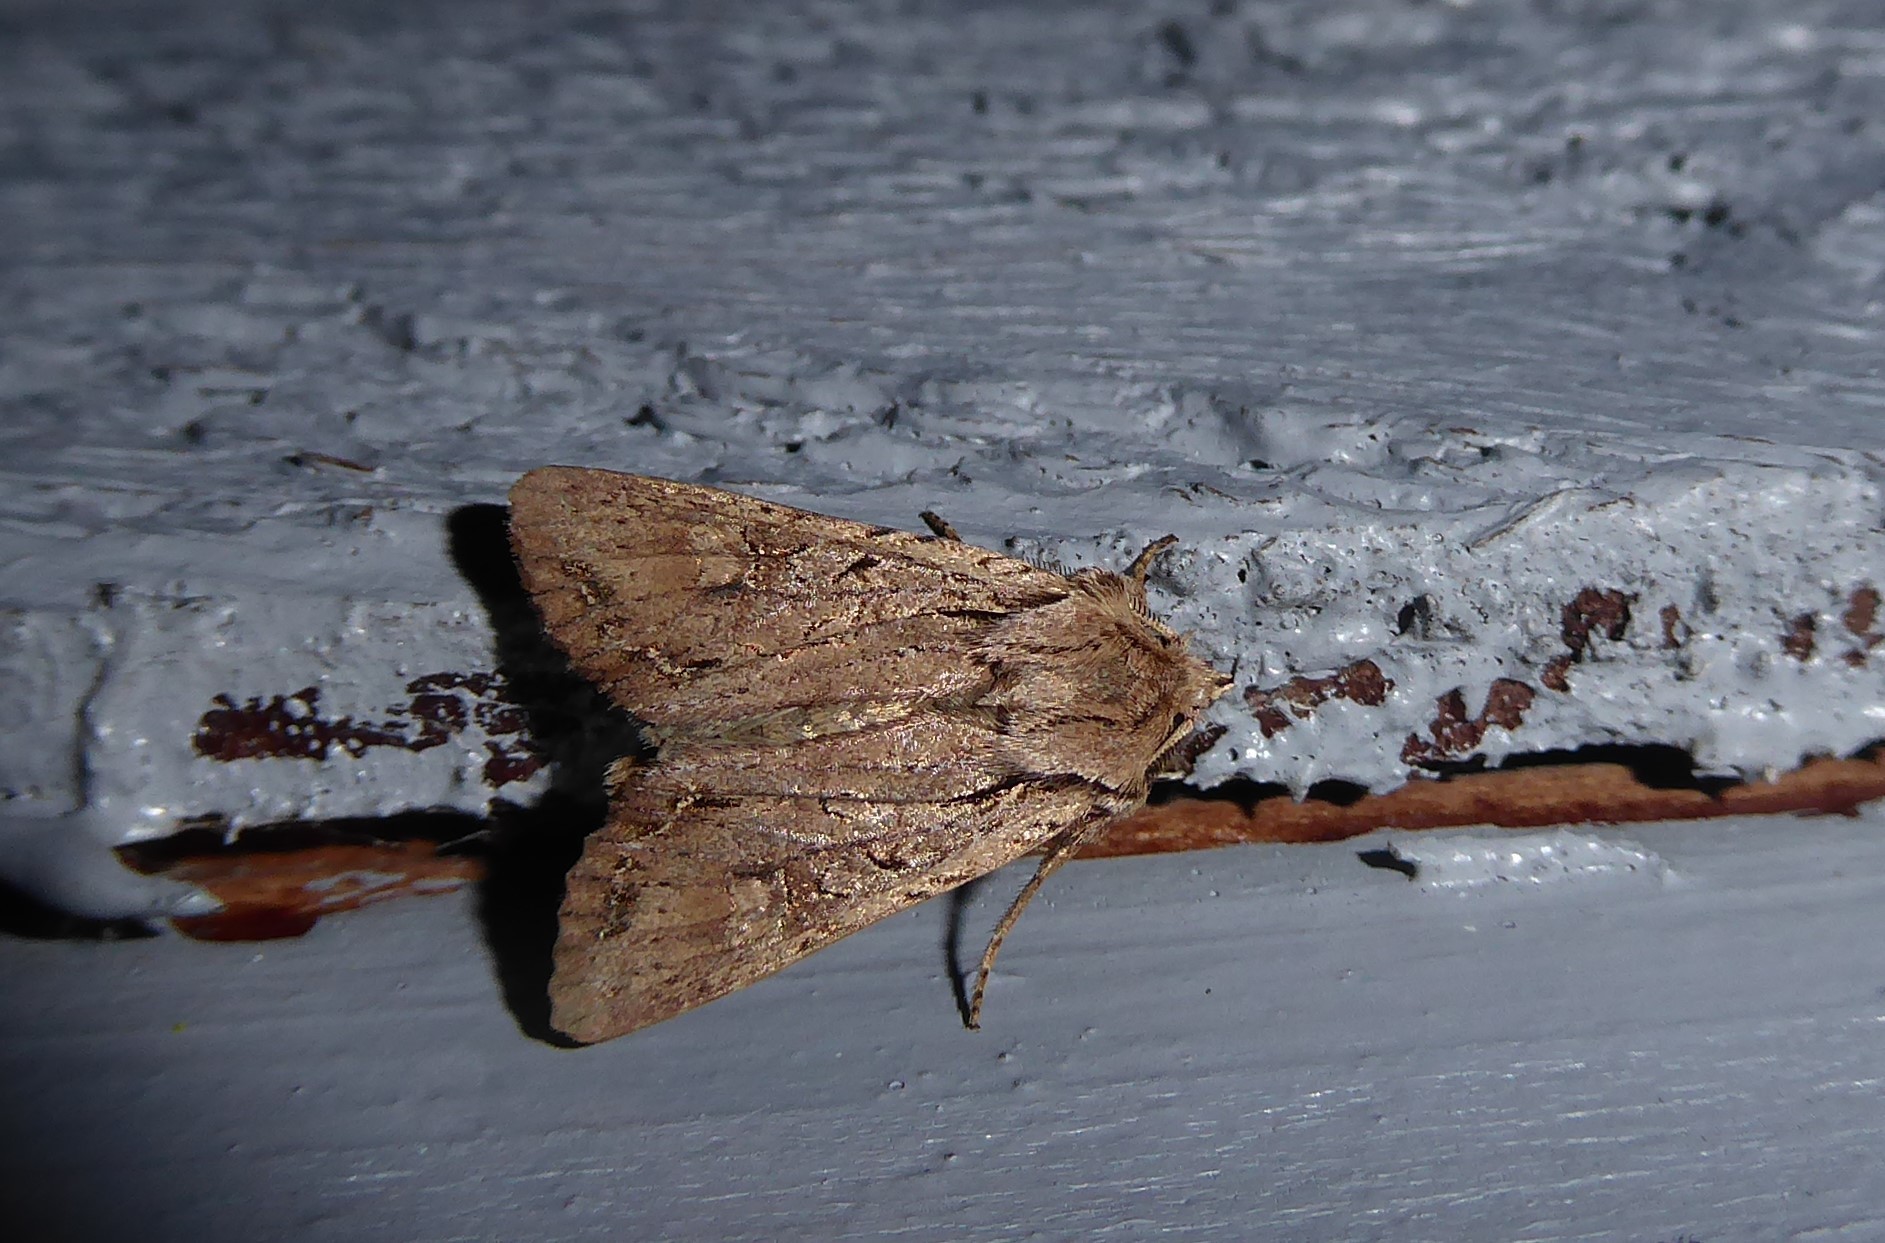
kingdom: Animalia
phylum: Arthropoda
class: Insecta
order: Lepidoptera
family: Noctuidae
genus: Ichneutica
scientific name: Ichneutica
